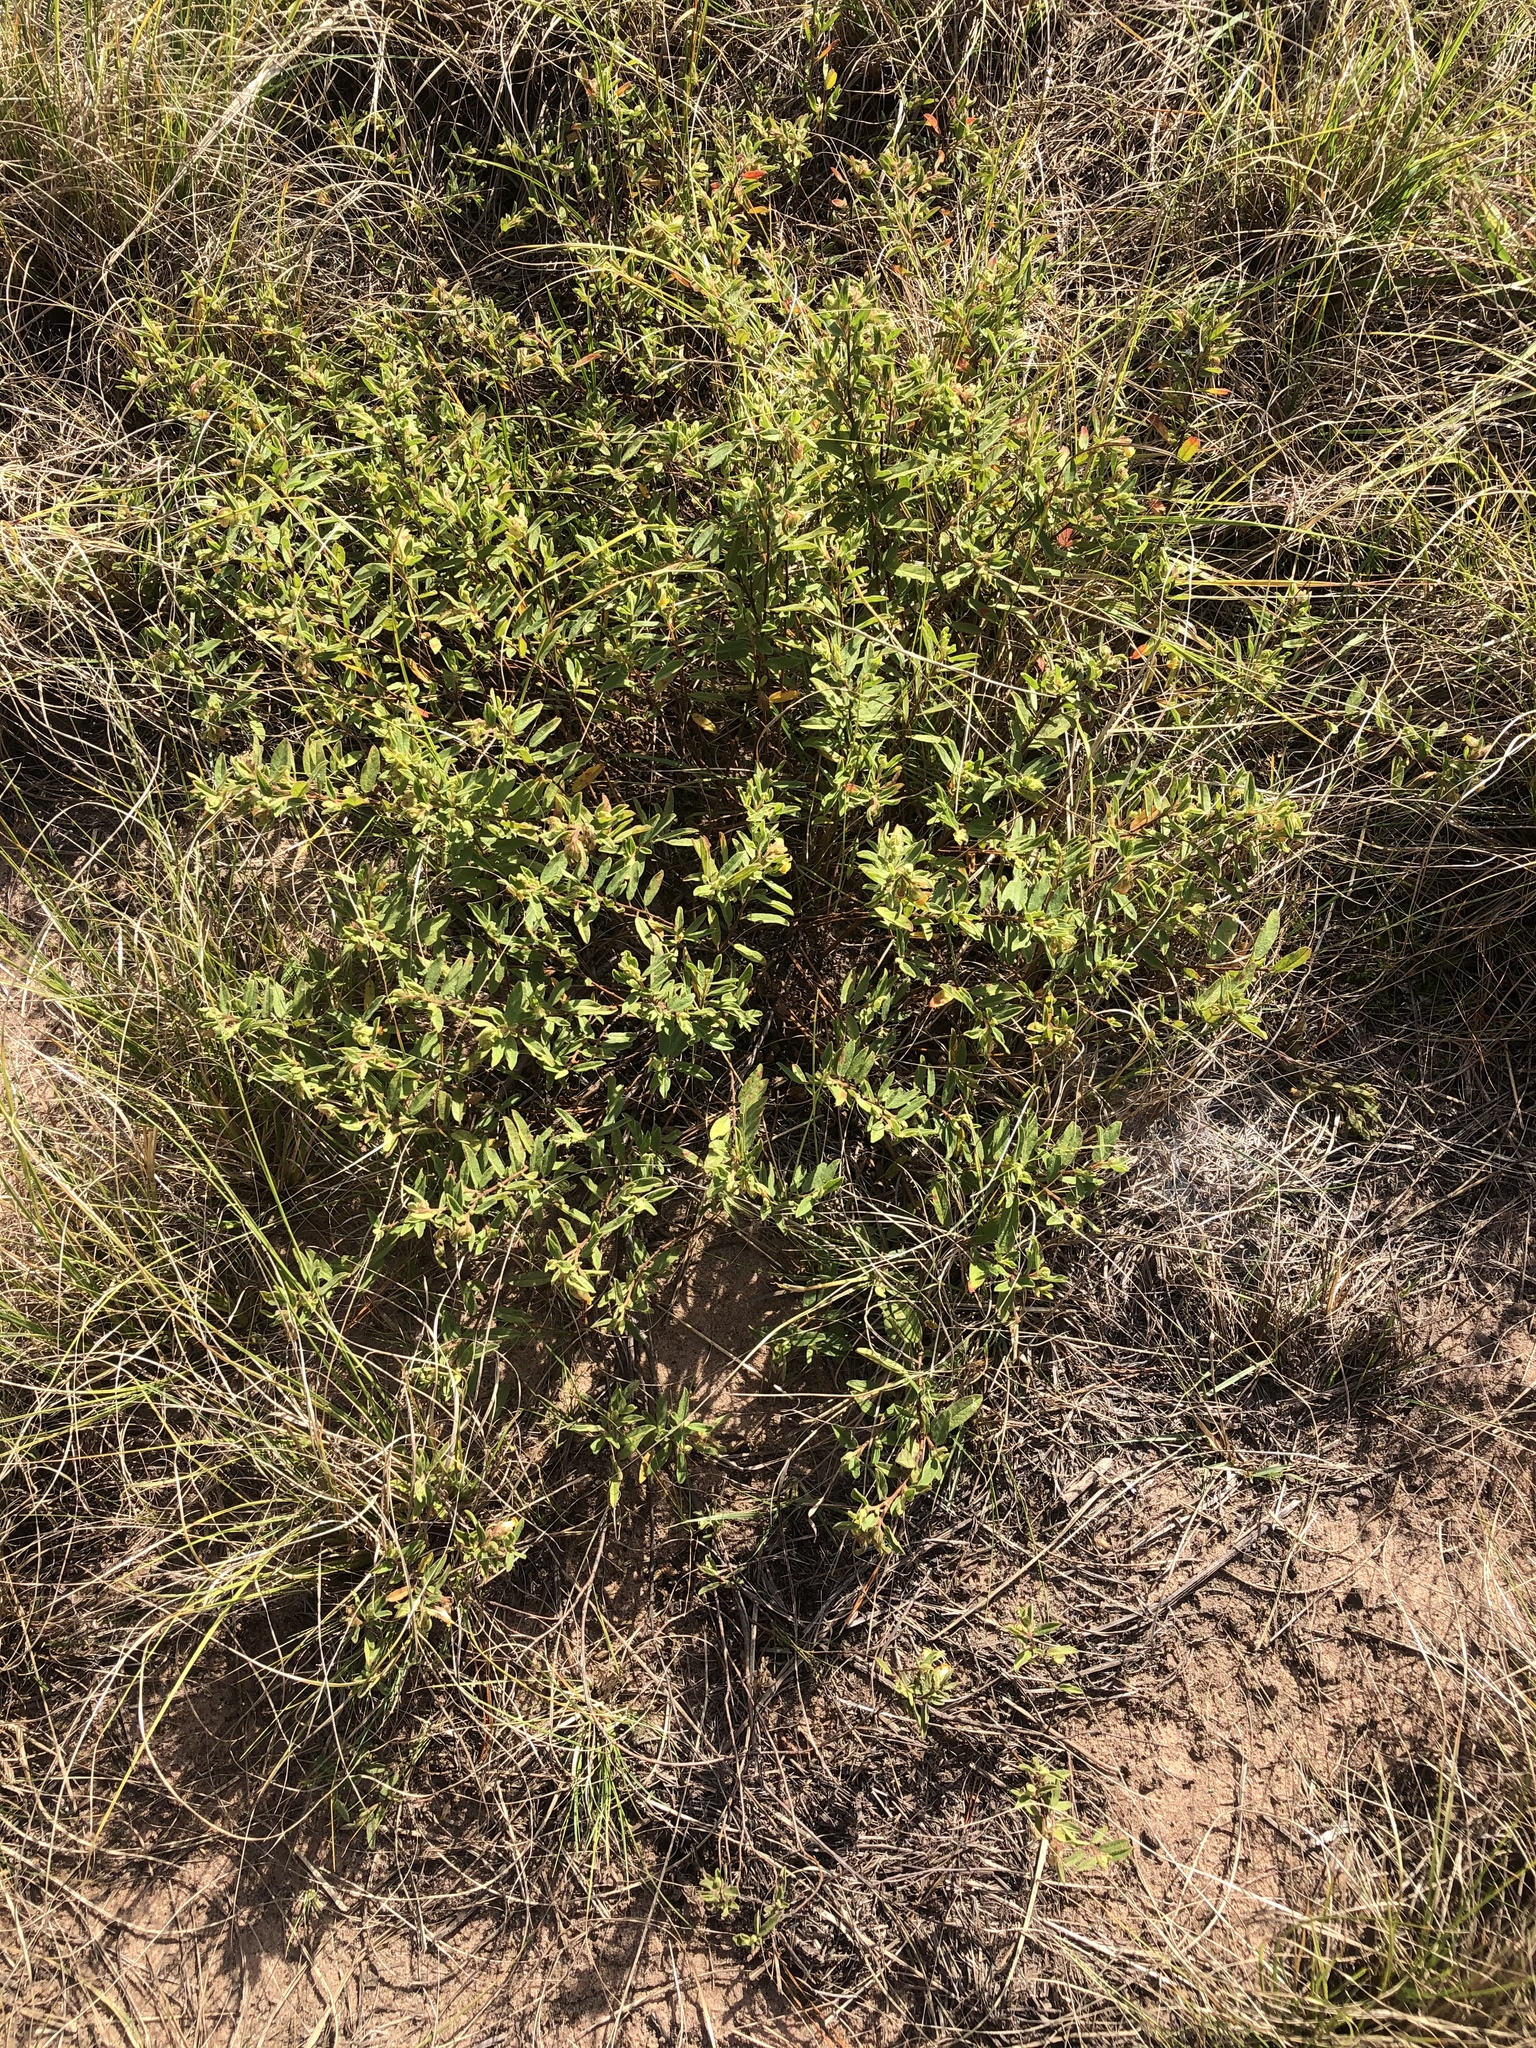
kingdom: Plantae
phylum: Tracheophyta
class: Magnoliopsida
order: Malvales
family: Malvaceae
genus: Hermannia
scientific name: Hermannia salviifolia
